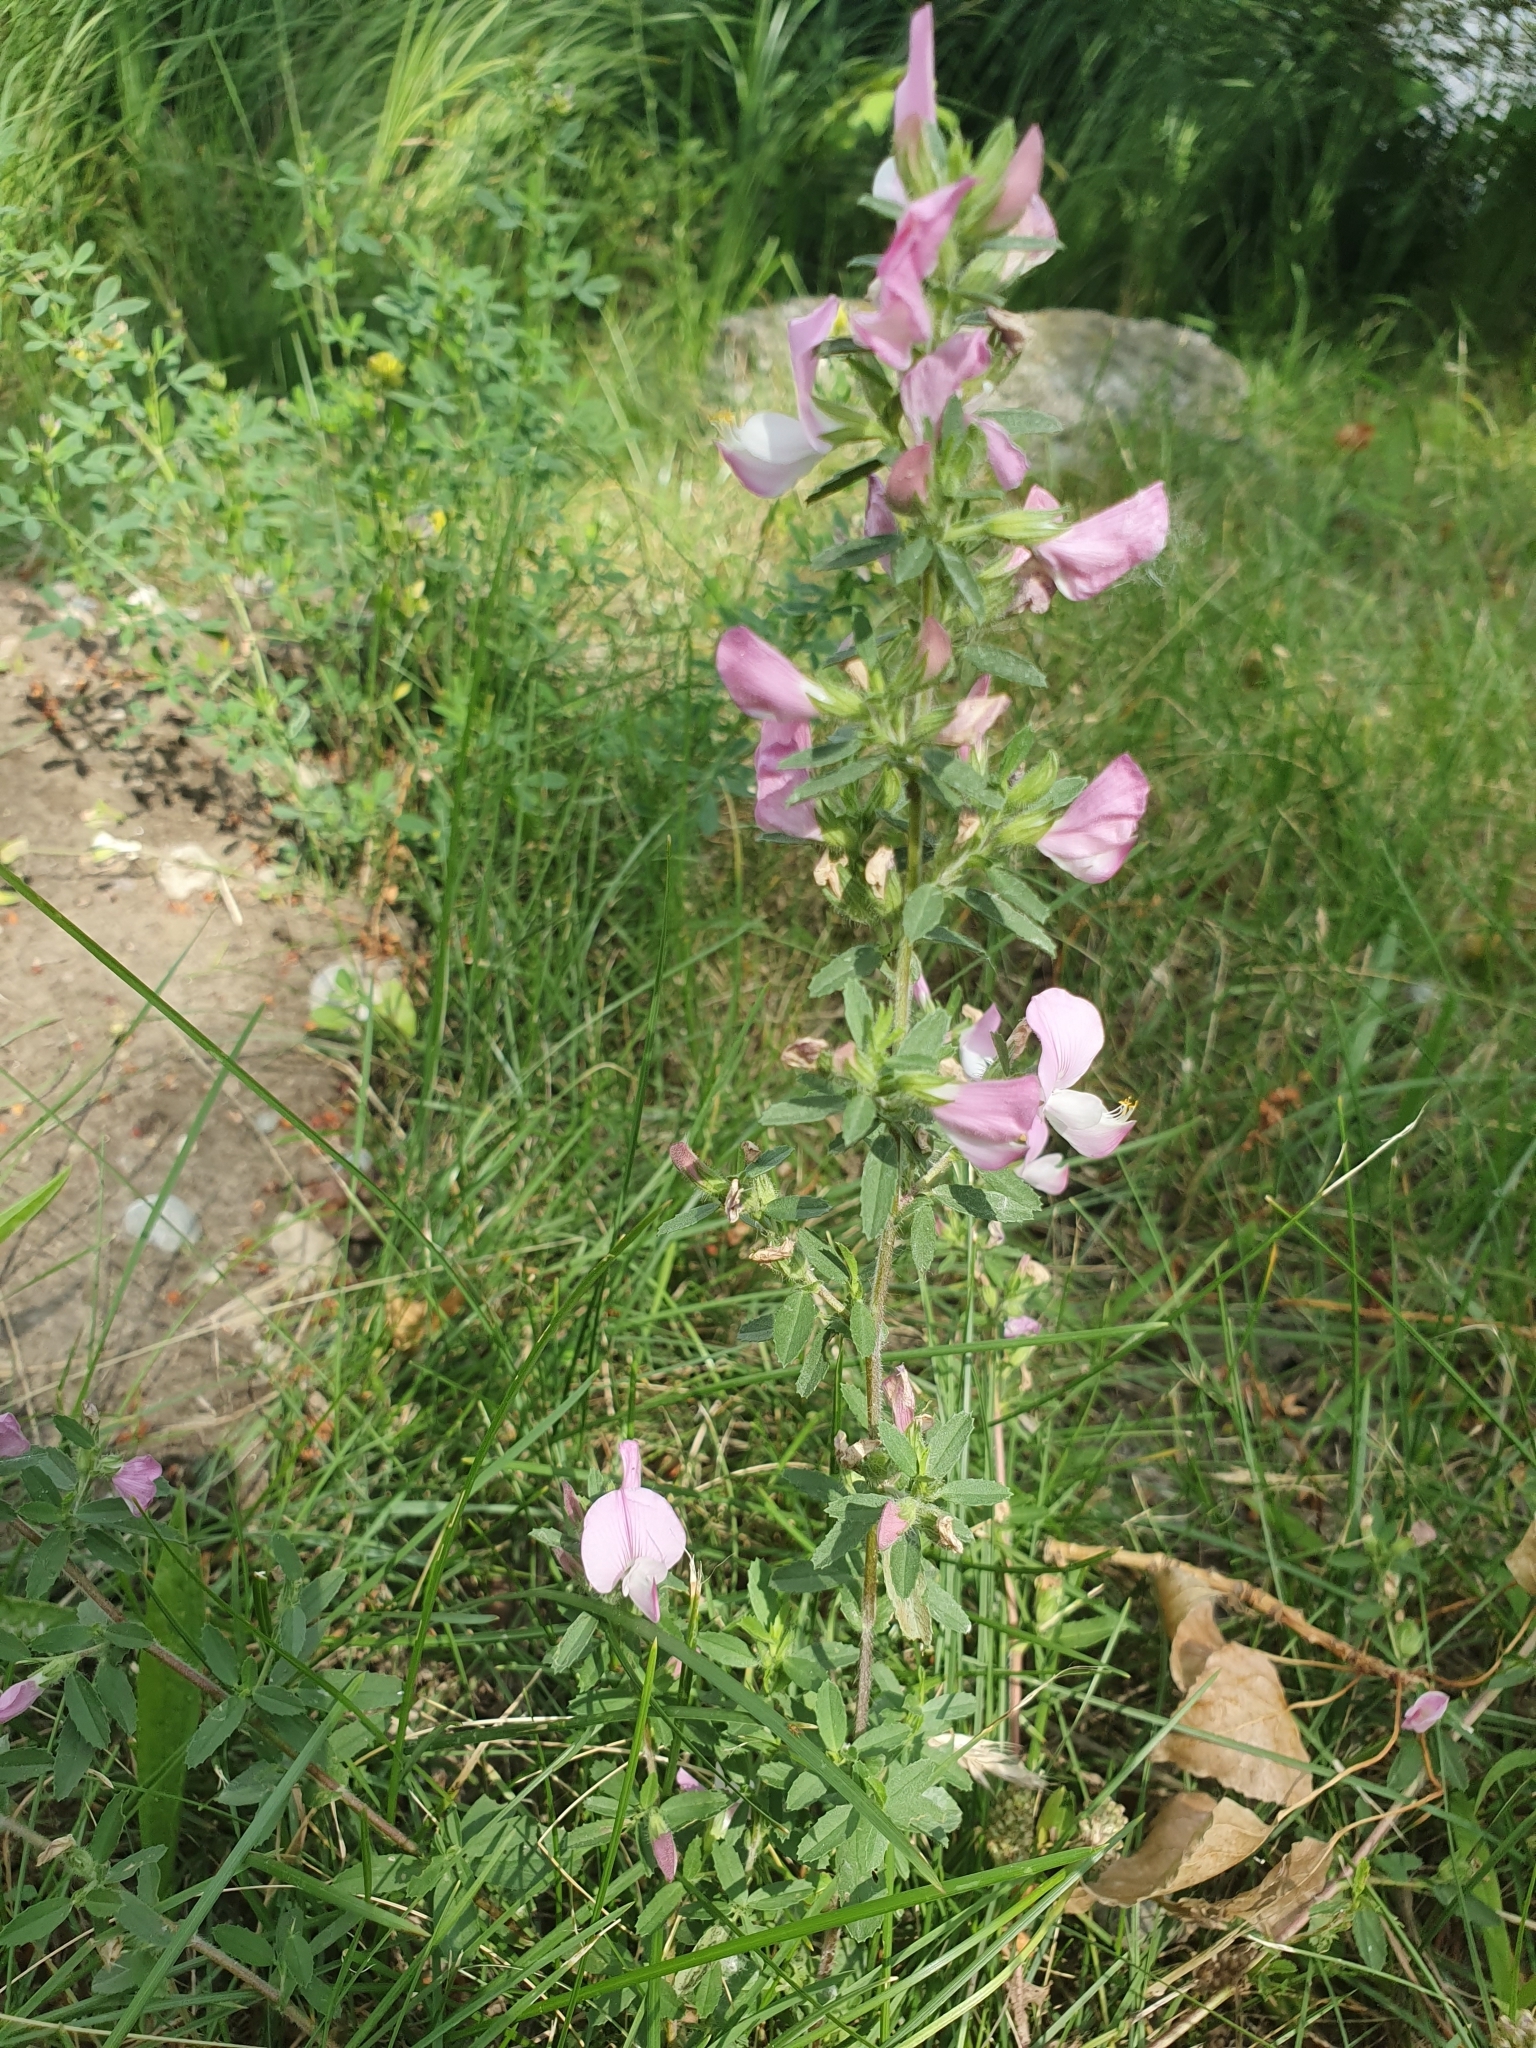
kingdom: Plantae
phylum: Tracheophyta
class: Magnoliopsida
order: Fabales
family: Fabaceae
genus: Ononis
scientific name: Ononis spinosa
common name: Spiny restharrow
